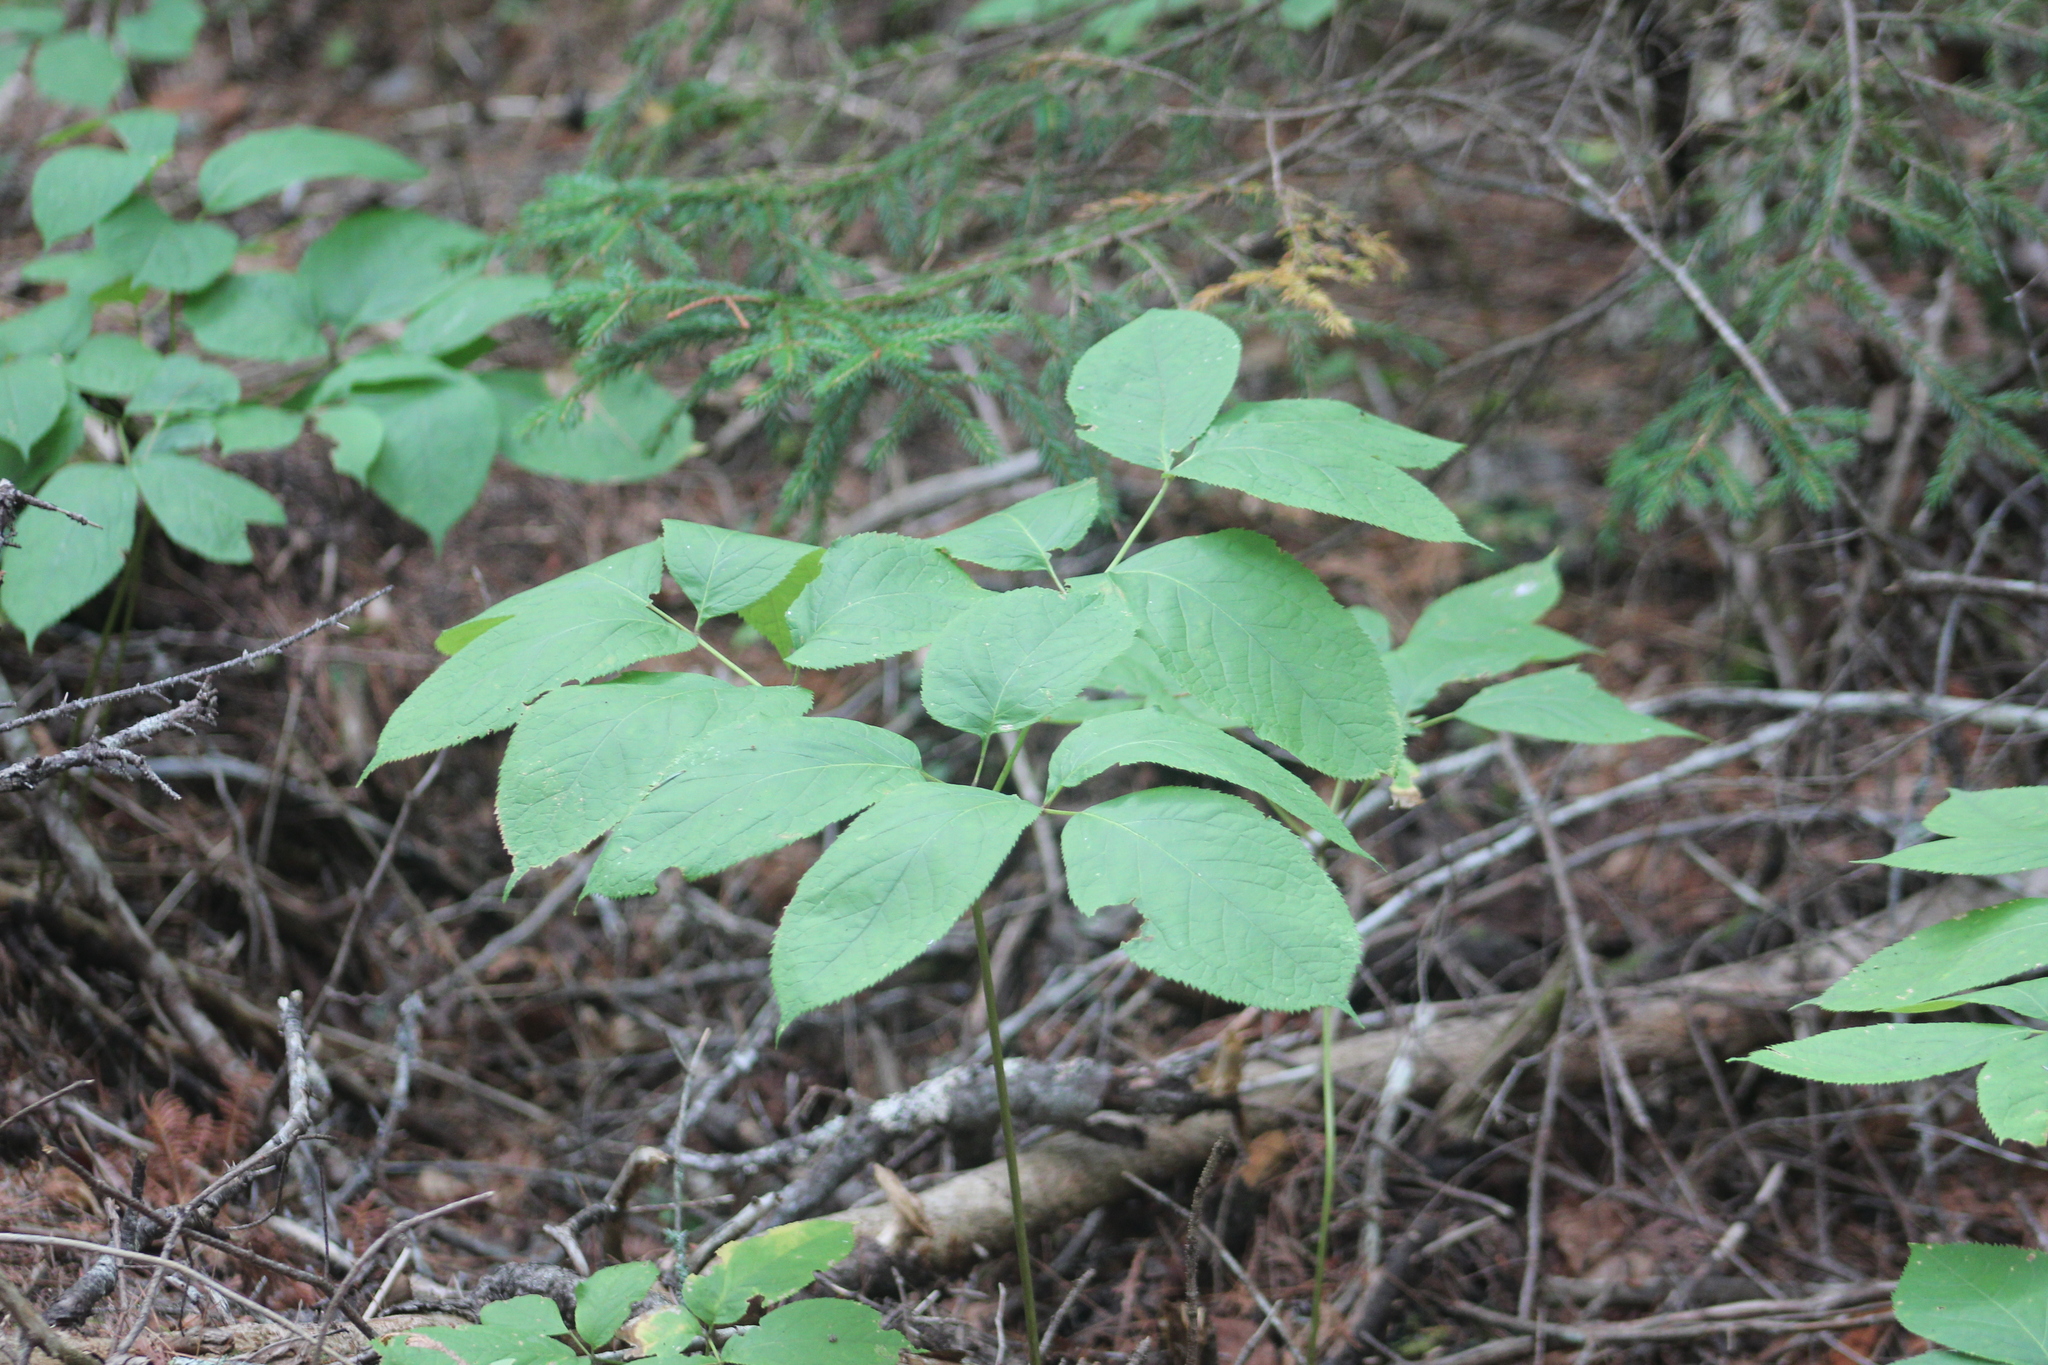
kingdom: Plantae
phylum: Tracheophyta
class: Magnoliopsida
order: Apiales
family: Araliaceae
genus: Aralia
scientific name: Aralia nudicaulis
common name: Wild sarsaparilla
